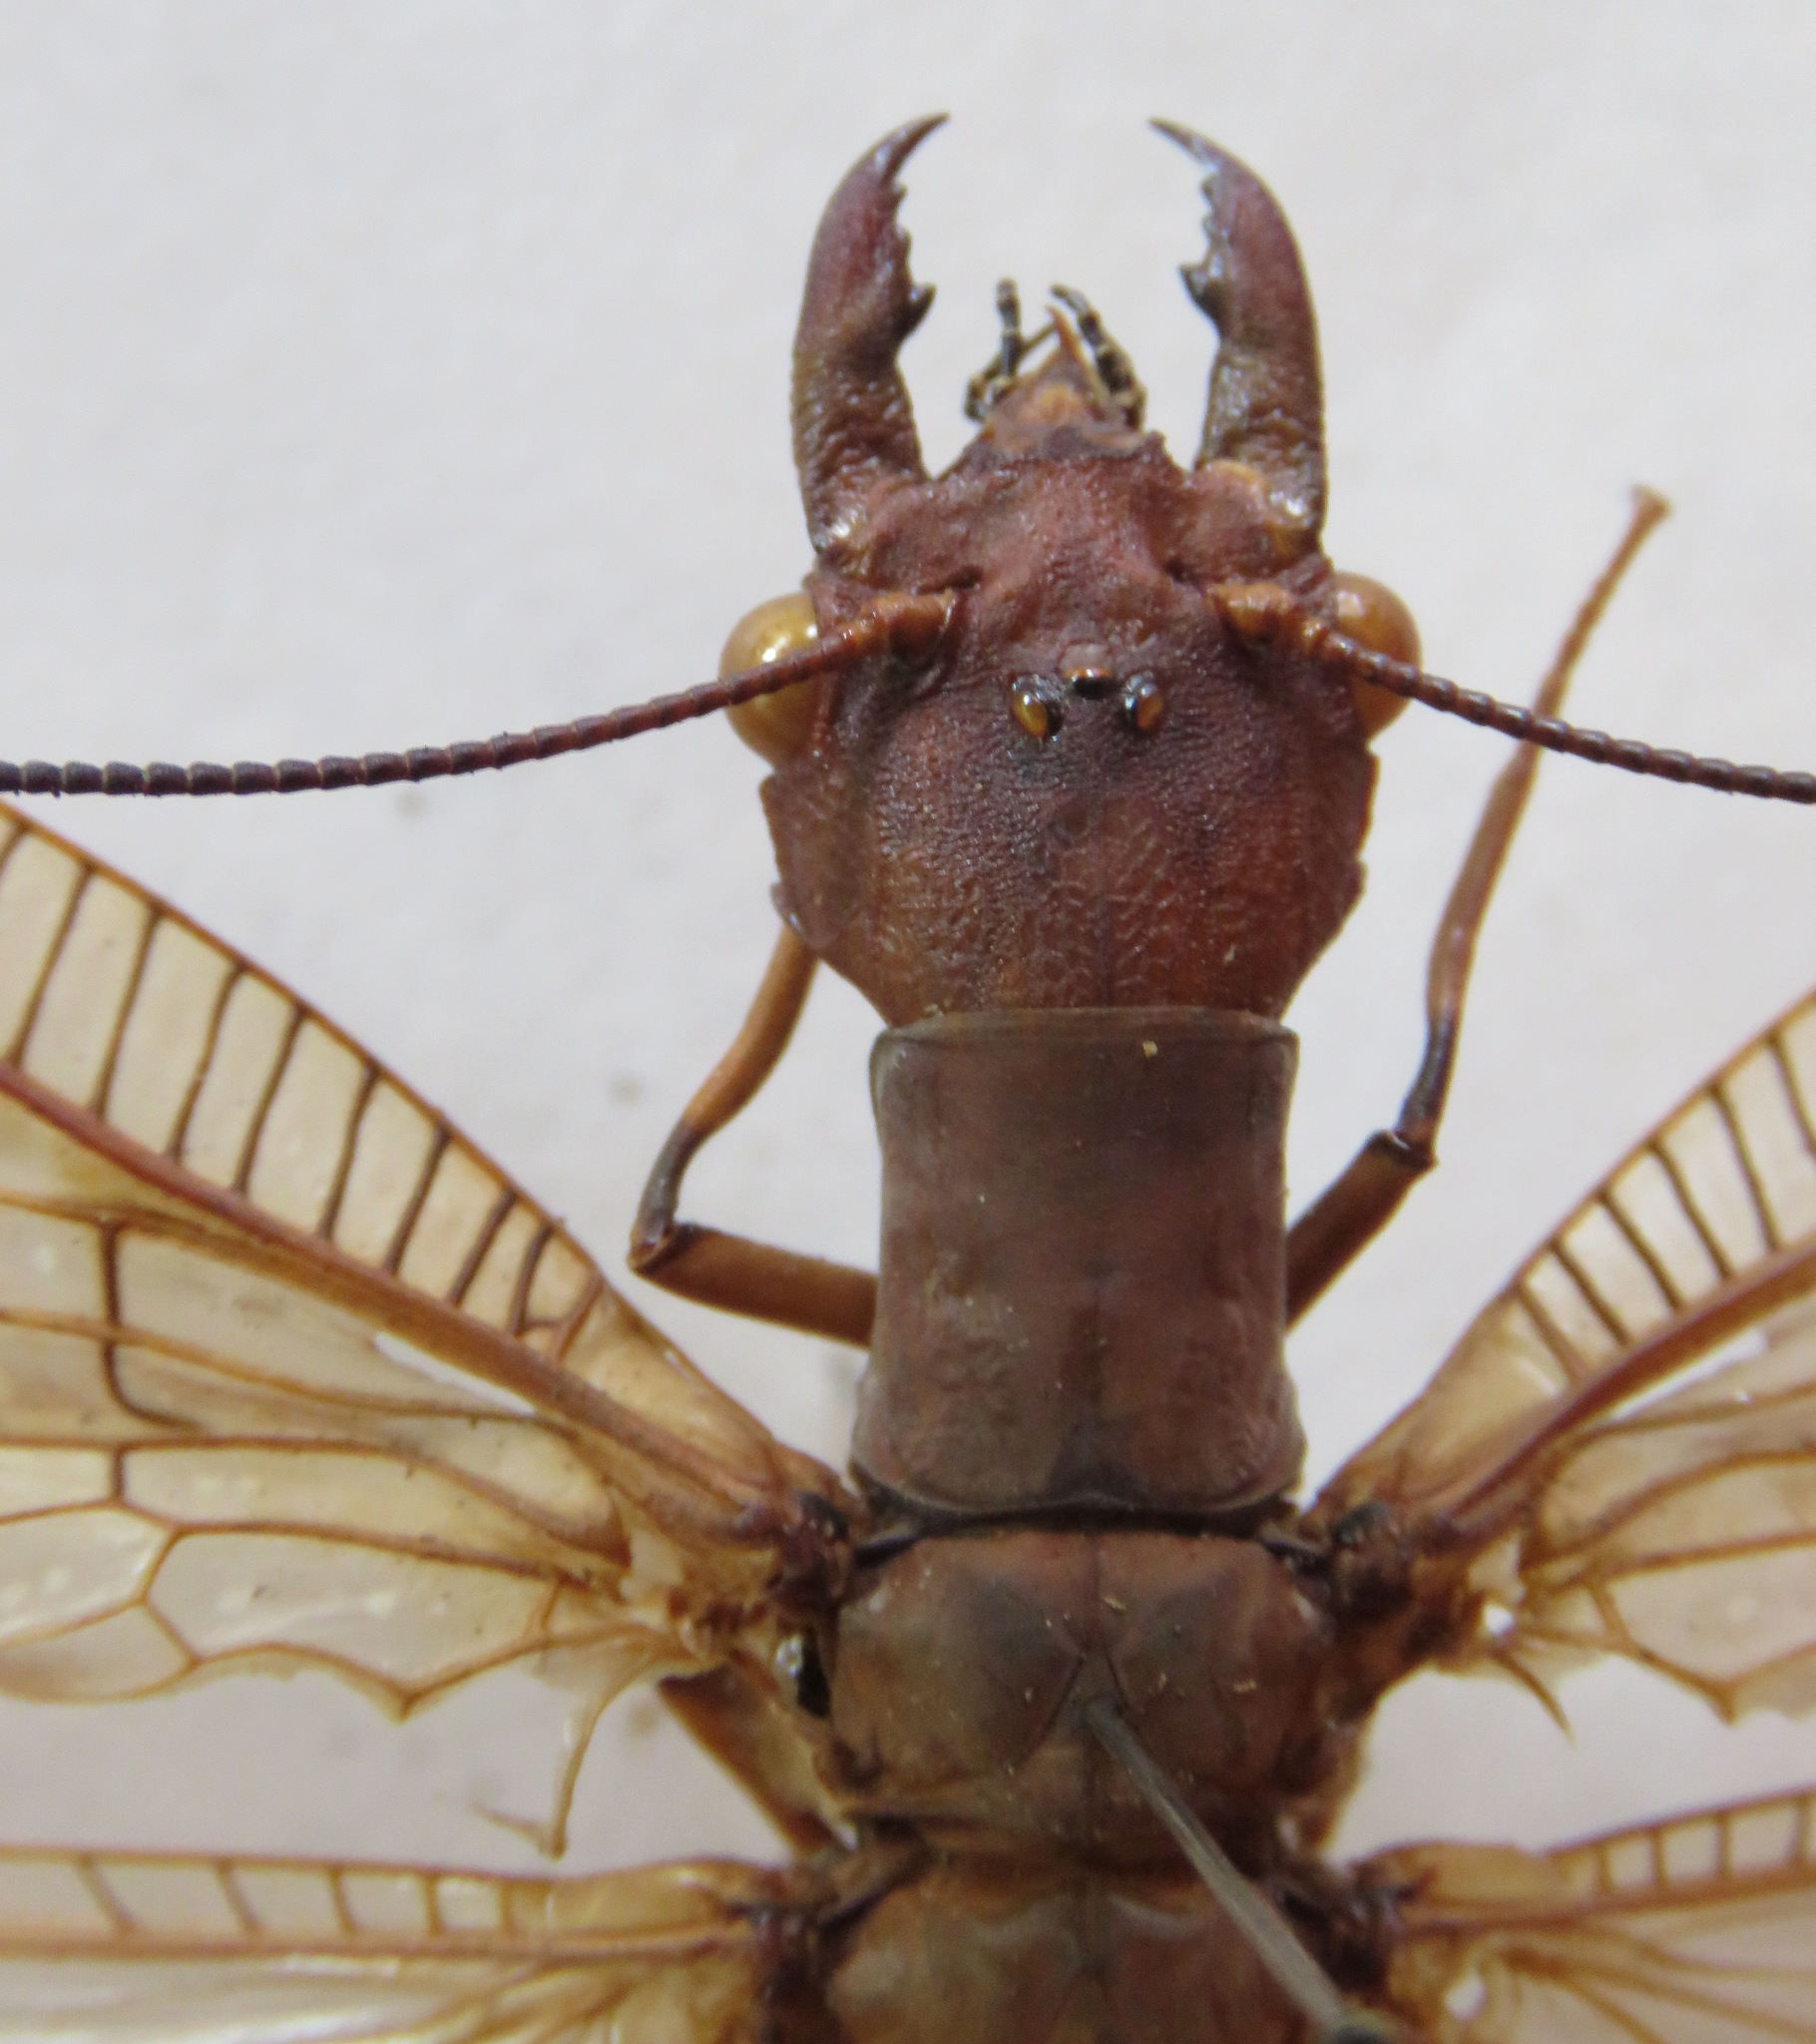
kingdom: Animalia
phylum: Arthropoda
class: Insecta
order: Megaloptera
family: Corydalidae
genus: Corydalus
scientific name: Corydalus peruvianus
